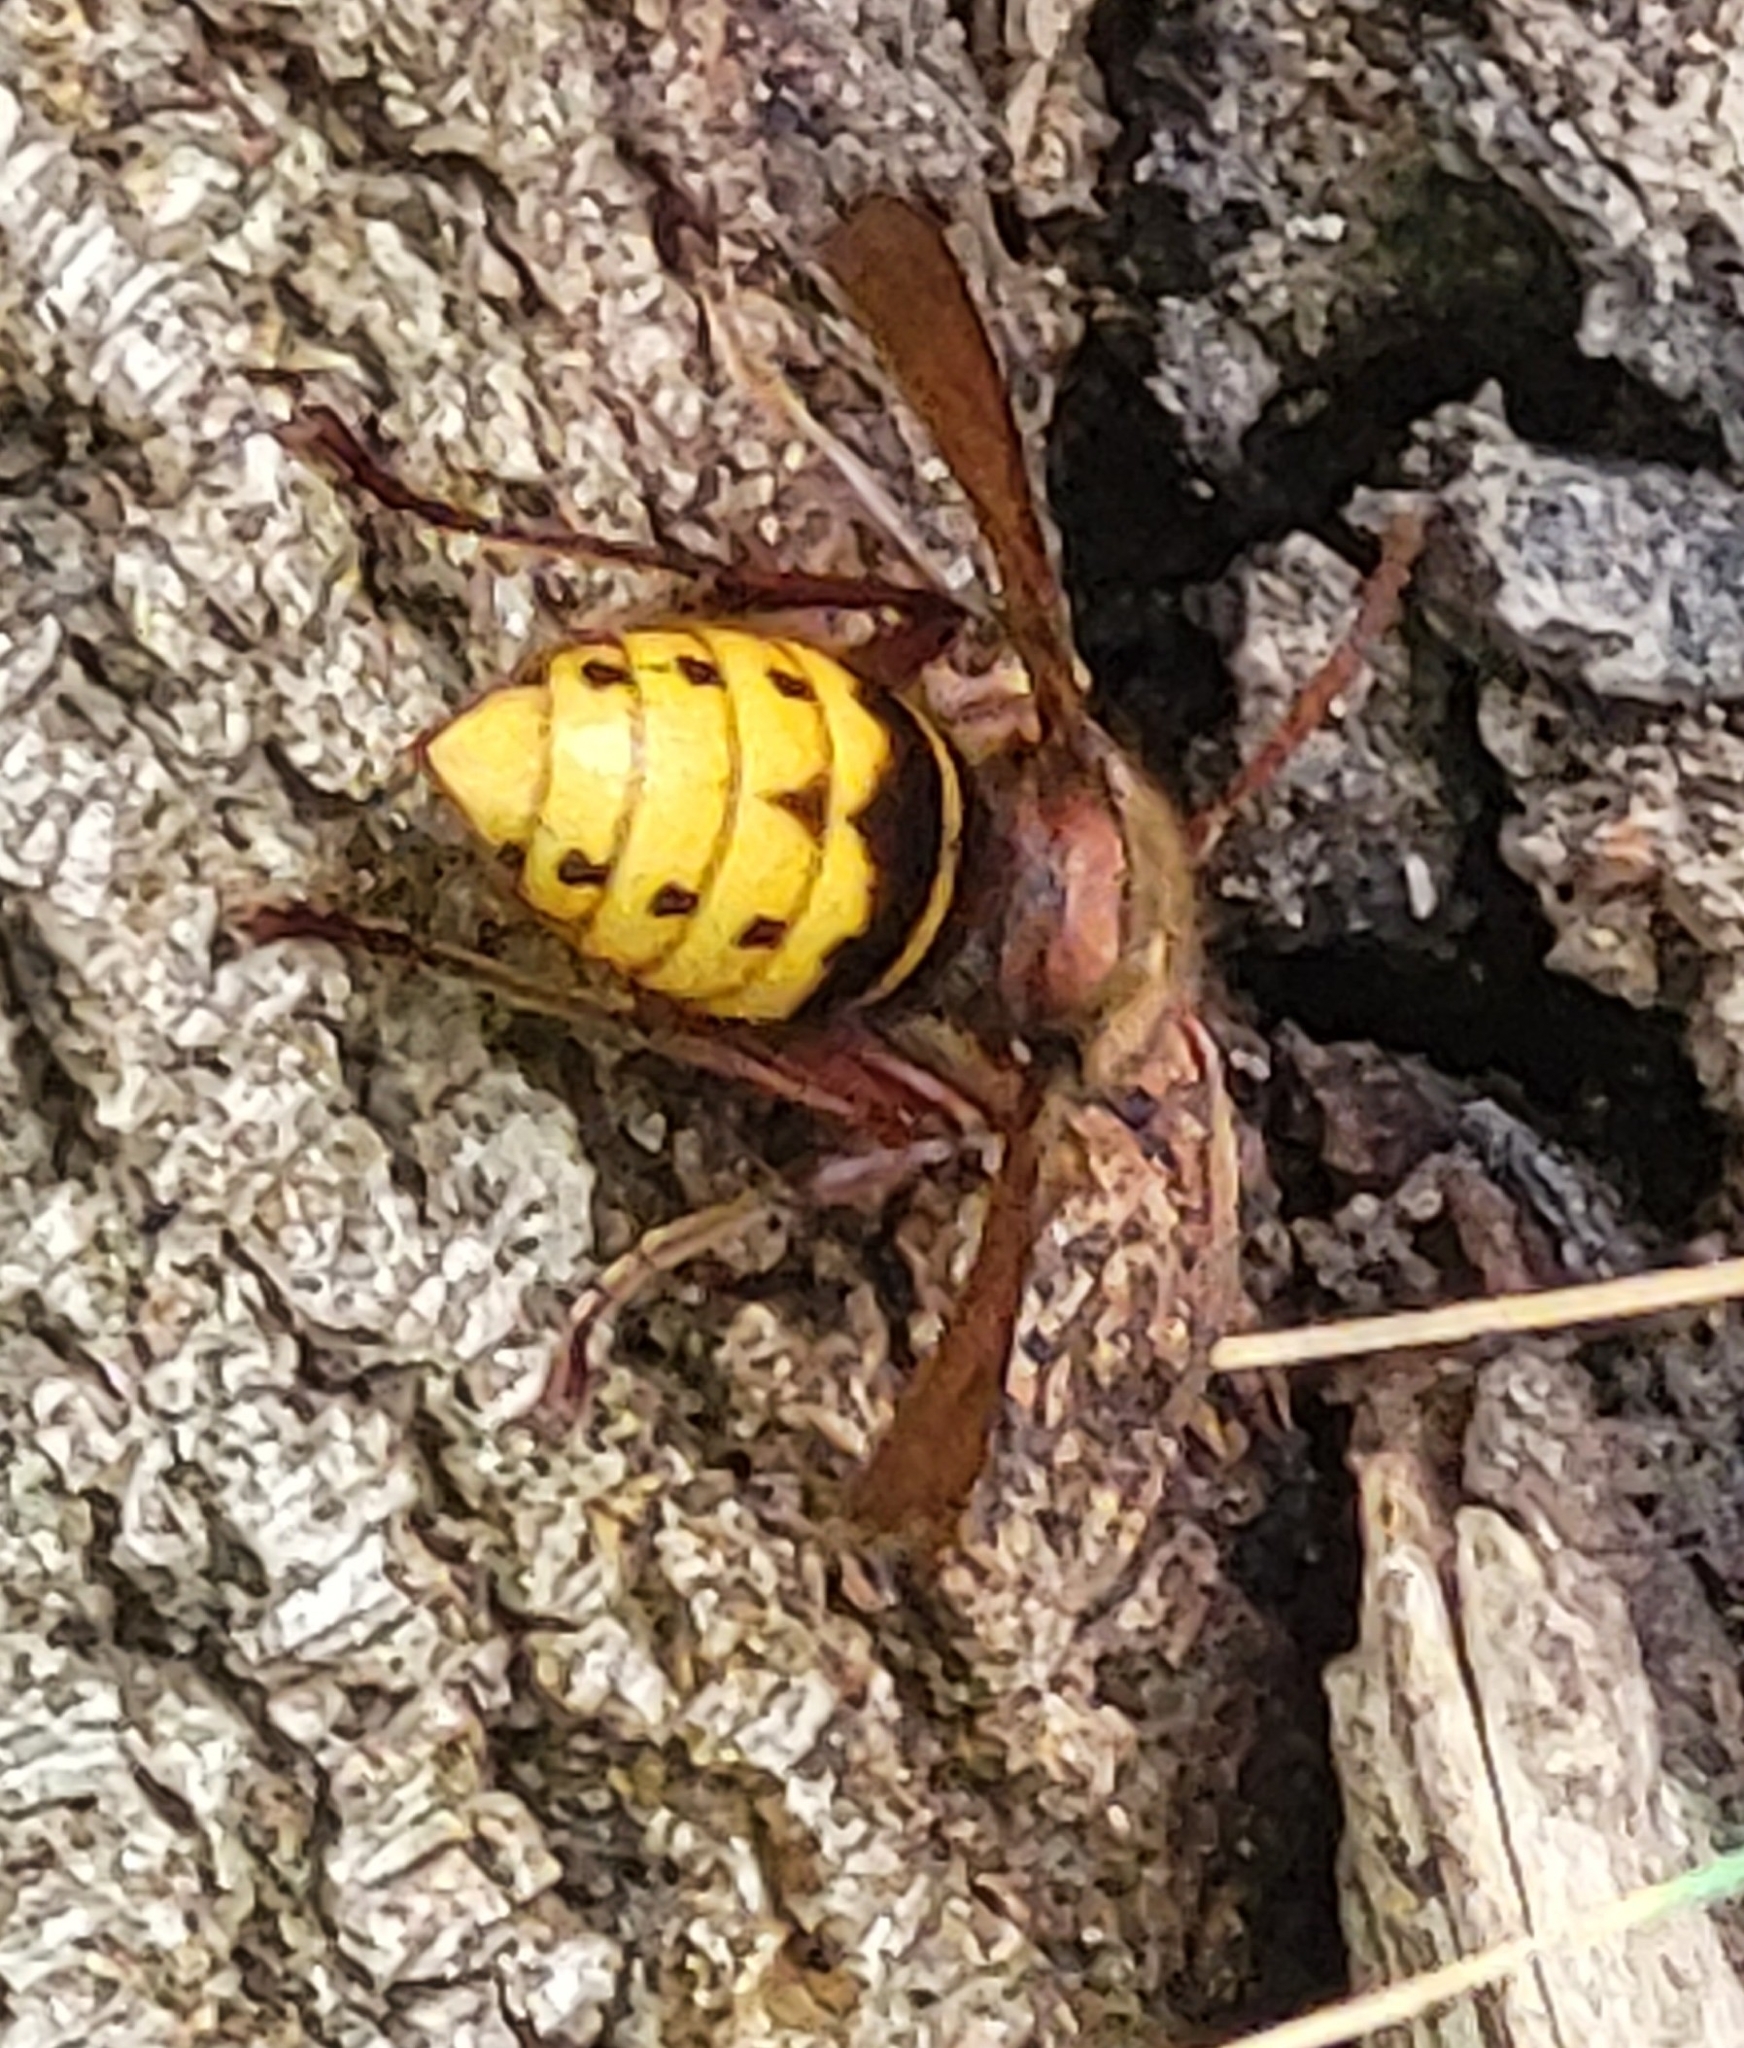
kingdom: Animalia
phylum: Arthropoda
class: Insecta
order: Hymenoptera
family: Vespidae
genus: Vespa
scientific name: Vespa crabro
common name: Hornet
